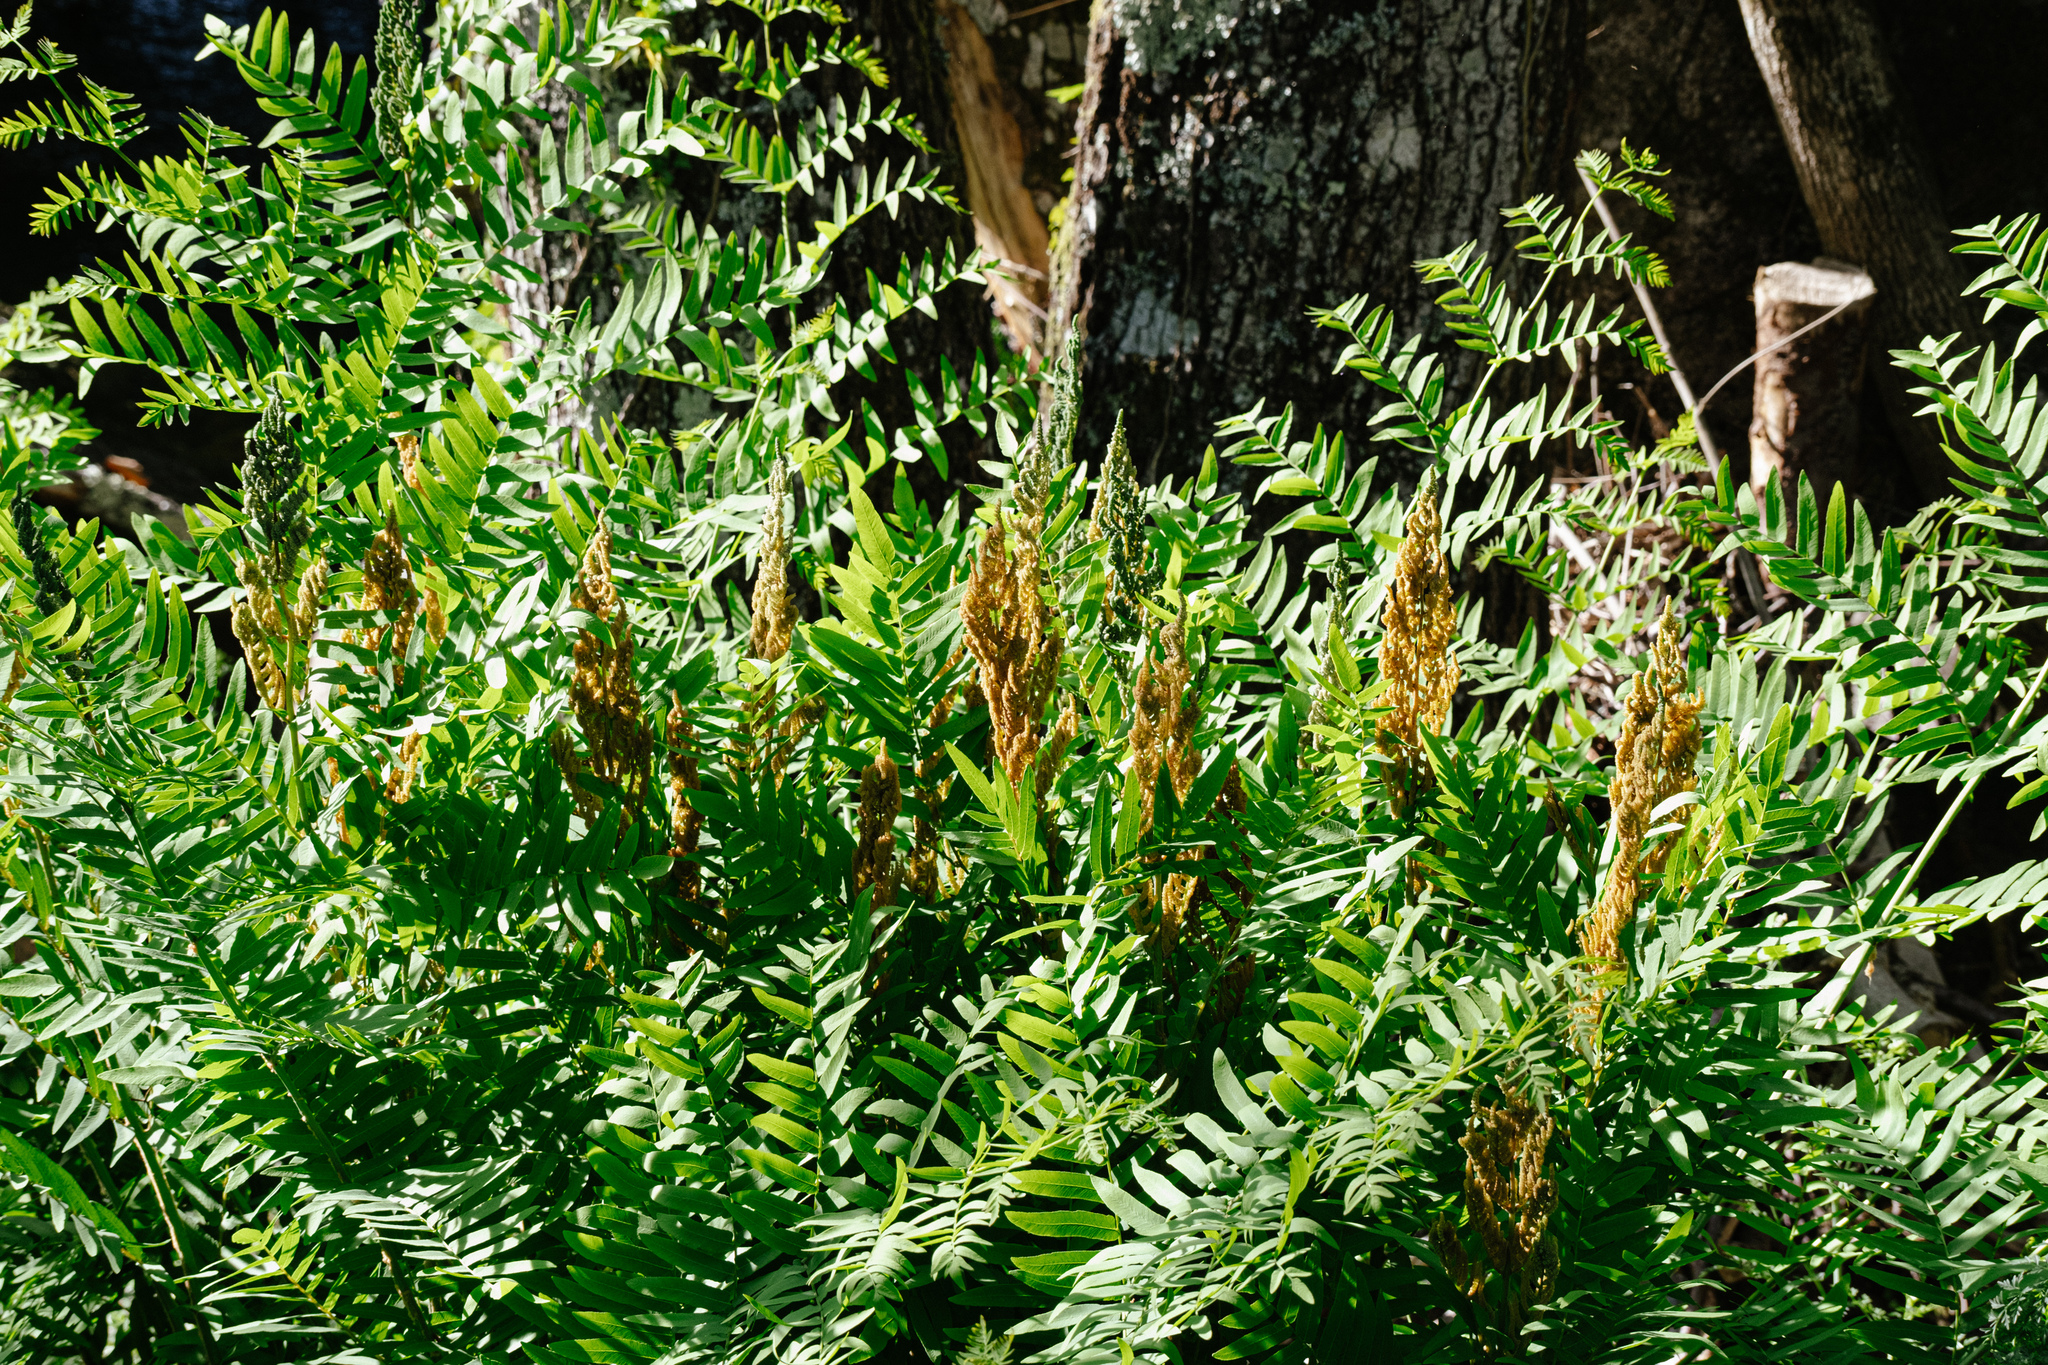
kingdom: Plantae
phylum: Tracheophyta
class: Polypodiopsida
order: Osmundales
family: Osmundaceae
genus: Osmunda
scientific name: Osmunda regalis
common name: Royal fern
